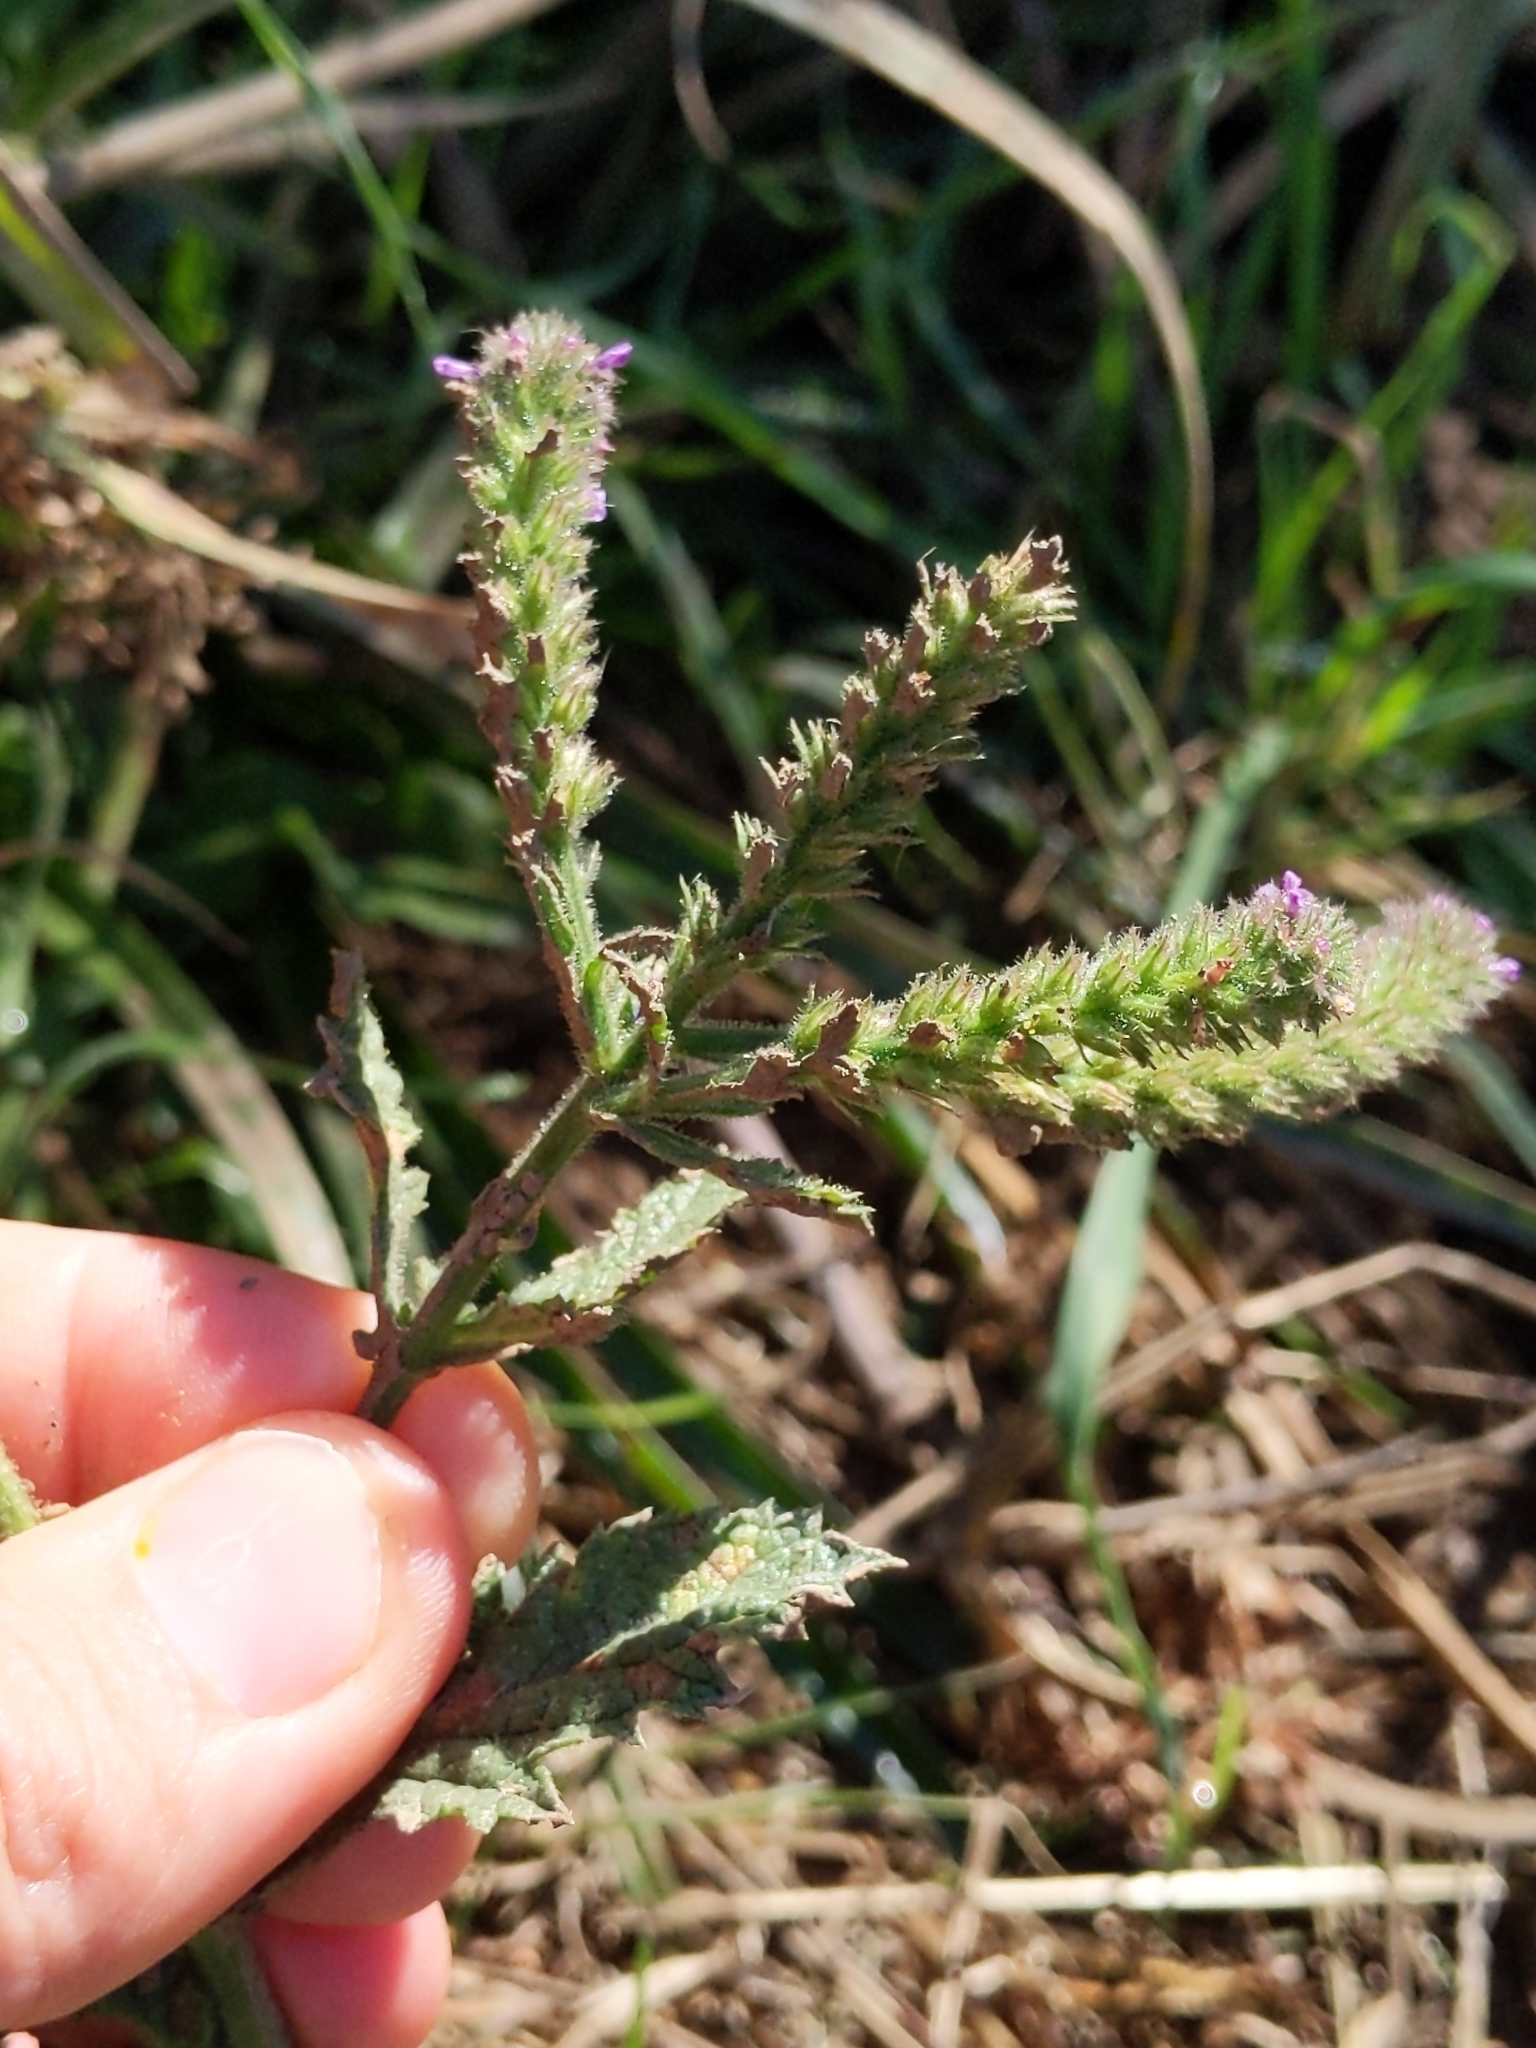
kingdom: Plantae
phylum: Tracheophyta
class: Magnoliopsida
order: Lamiales
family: Verbenaceae
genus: Verbena
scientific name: Verbena lasiostachys
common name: Vervain
